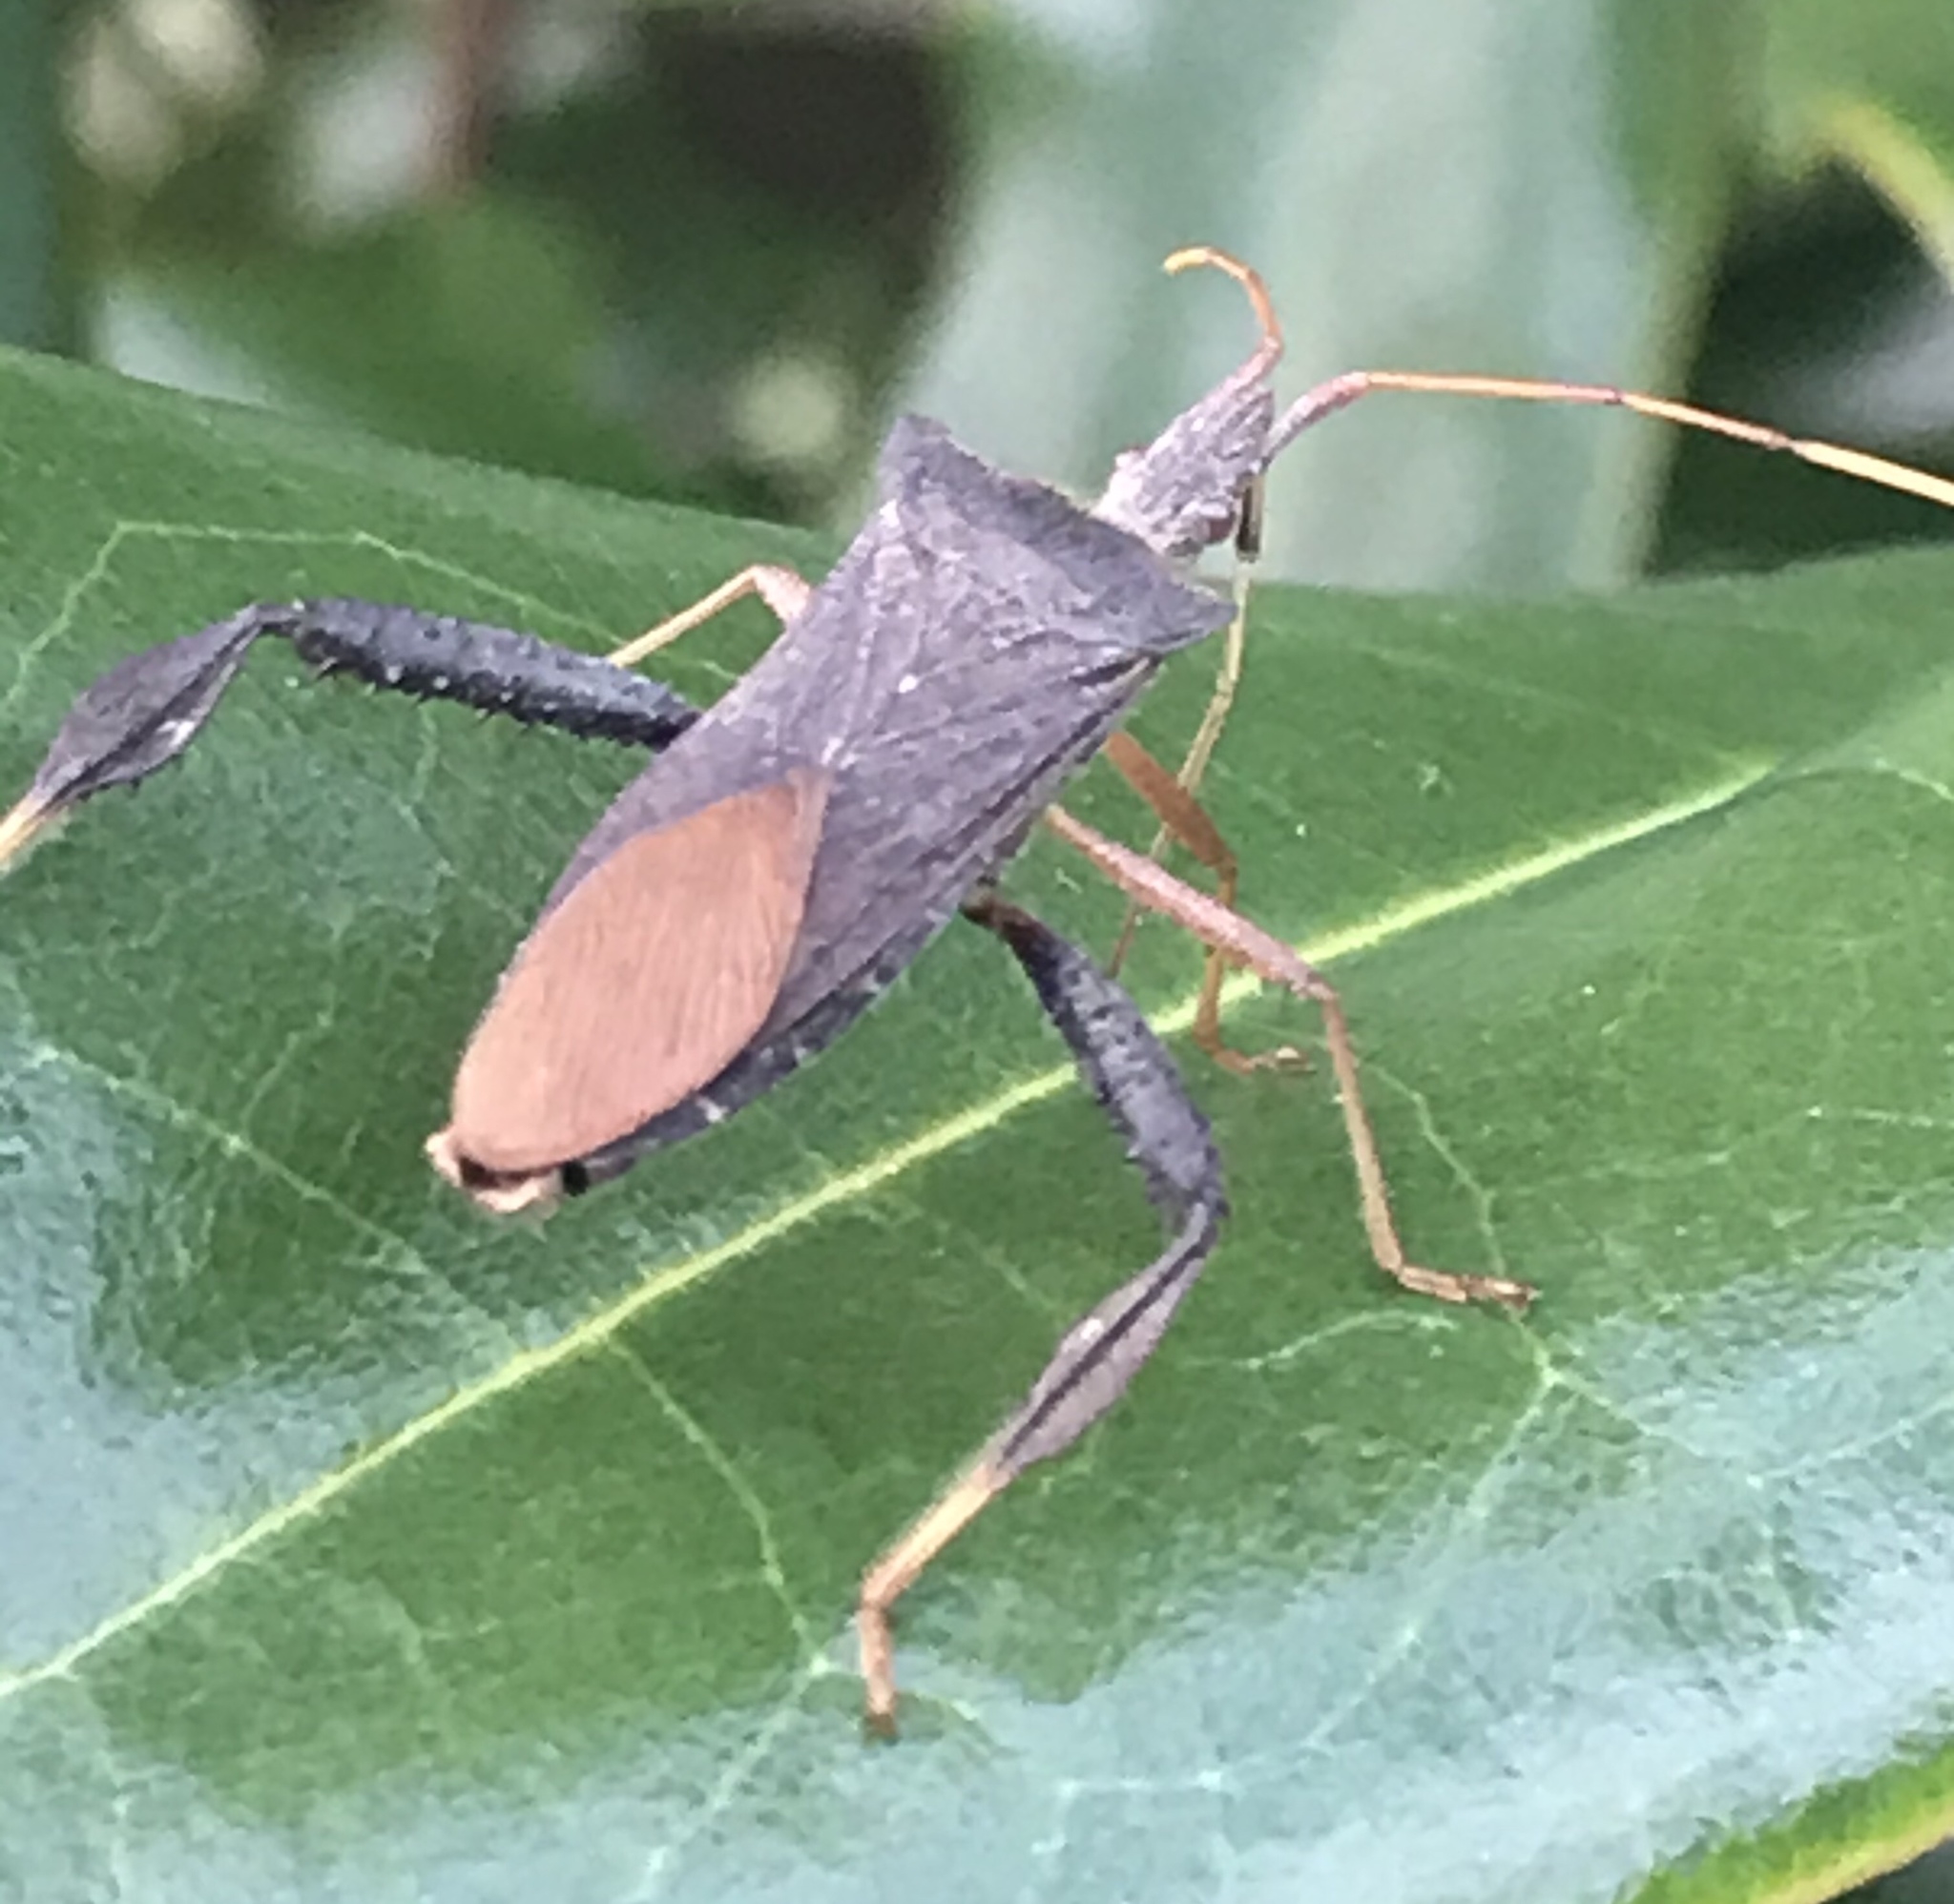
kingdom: Animalia
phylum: Arthropoda
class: Insecta
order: Hemiptera
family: Coreidae
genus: Leptoglossus
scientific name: Leptoglossus fulvicornis
